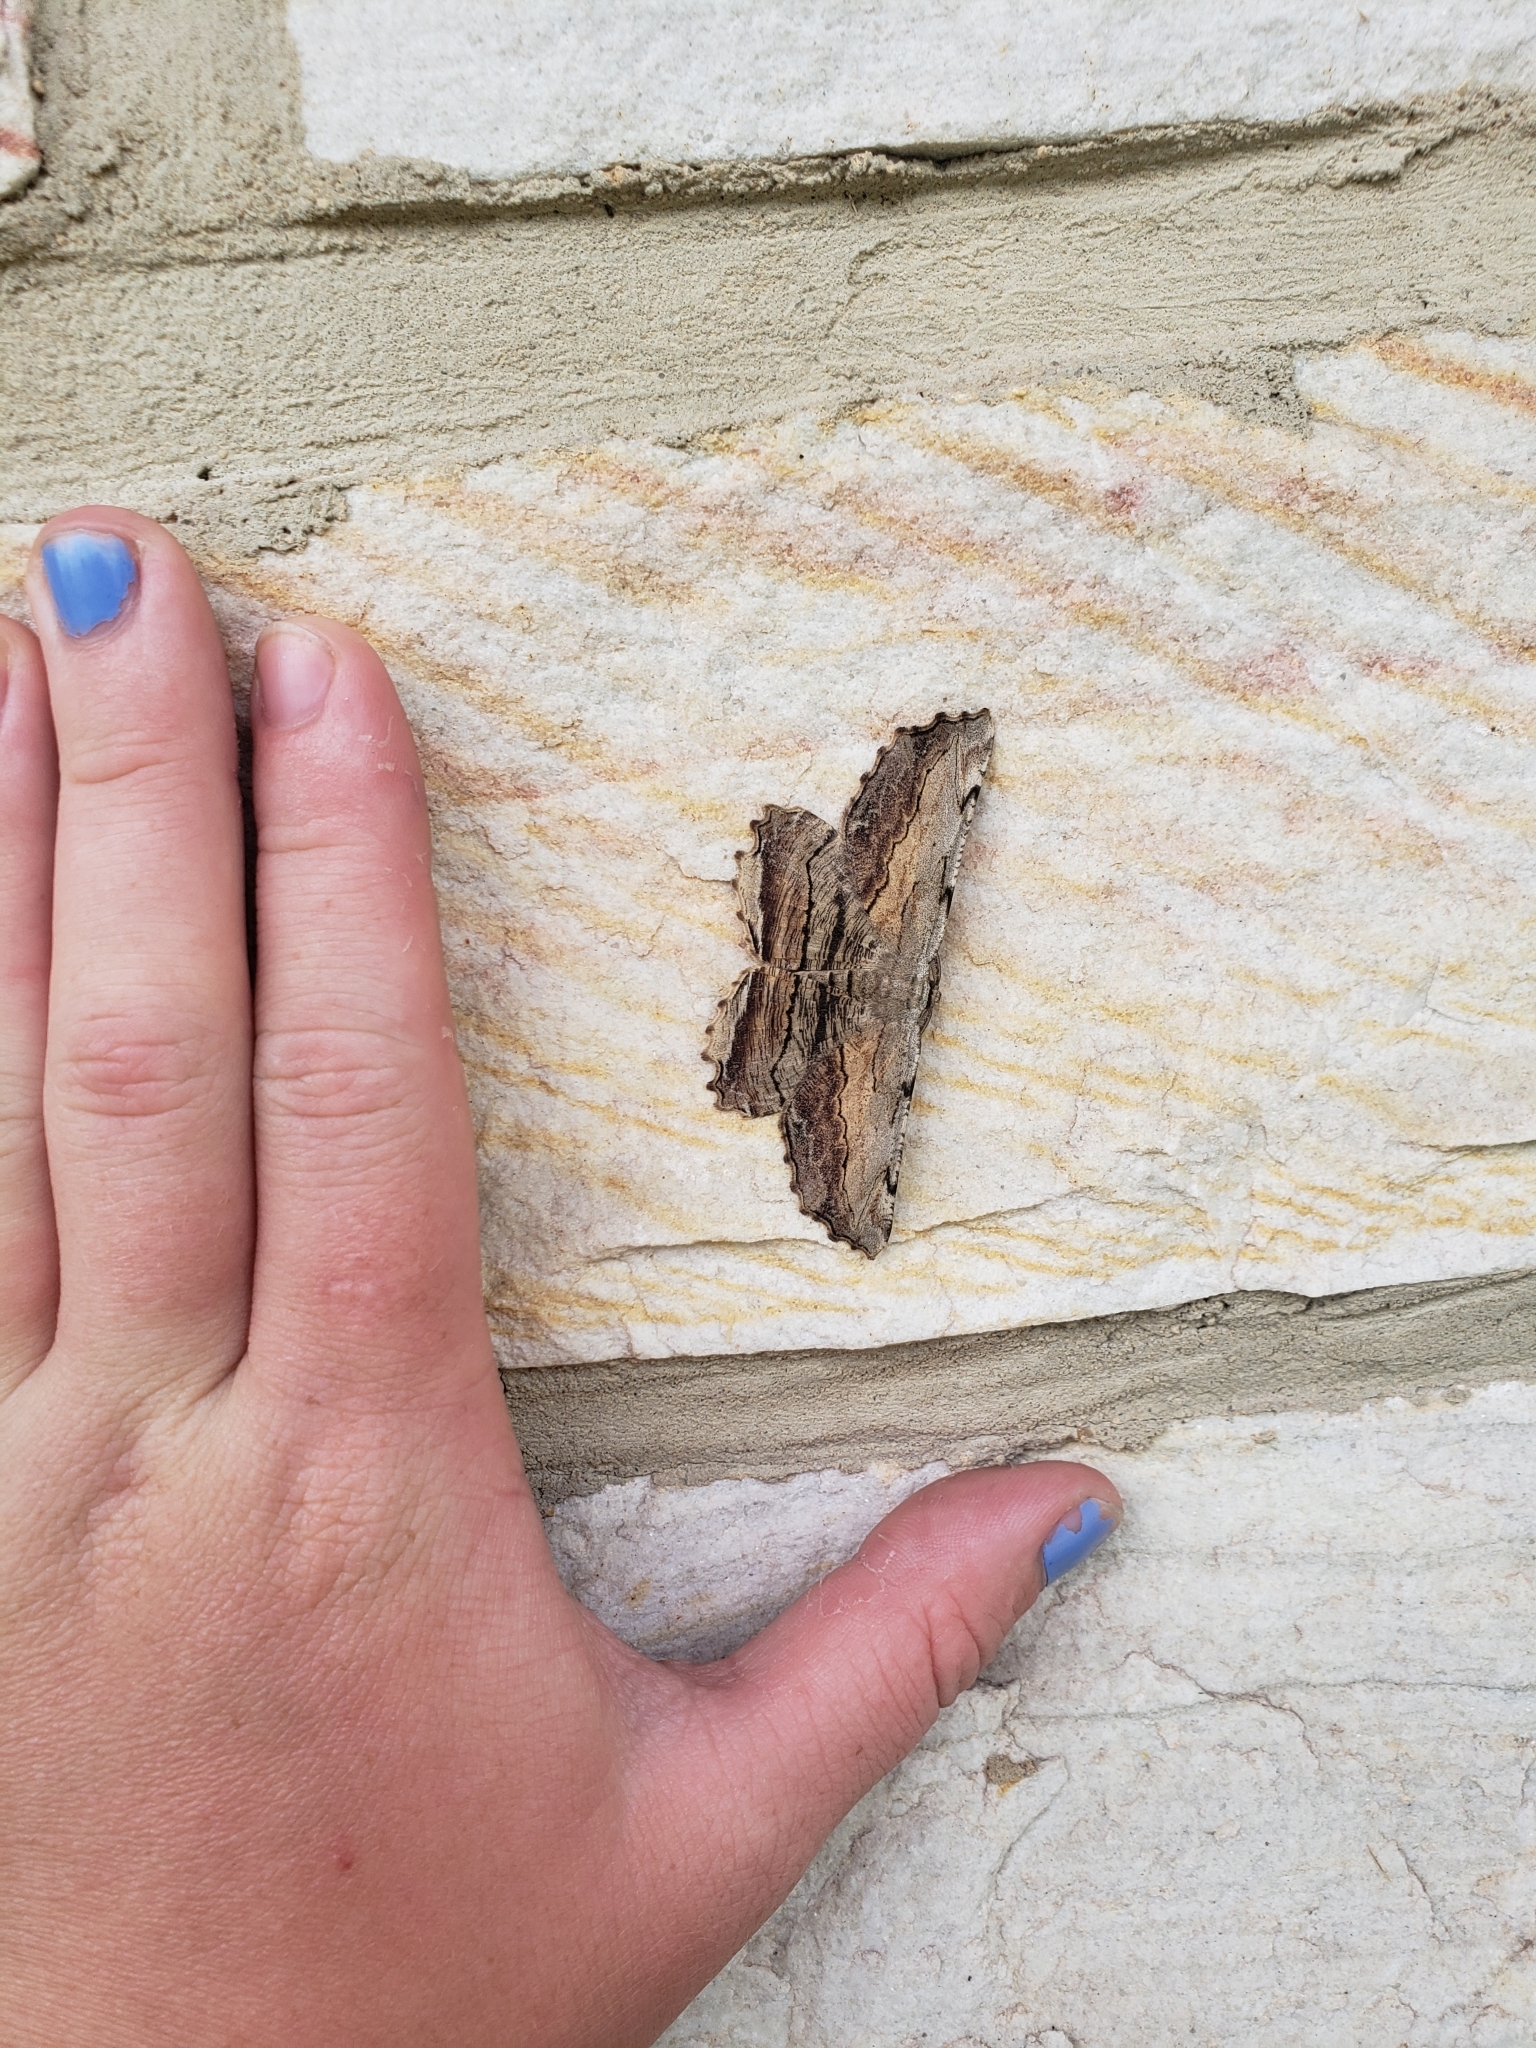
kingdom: Animalia
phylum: Arthropoda
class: Insecta
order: Lepidoptera
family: Geometridae
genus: Lytrosis
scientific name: Lytrosis unitaria
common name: Common lytrosis
